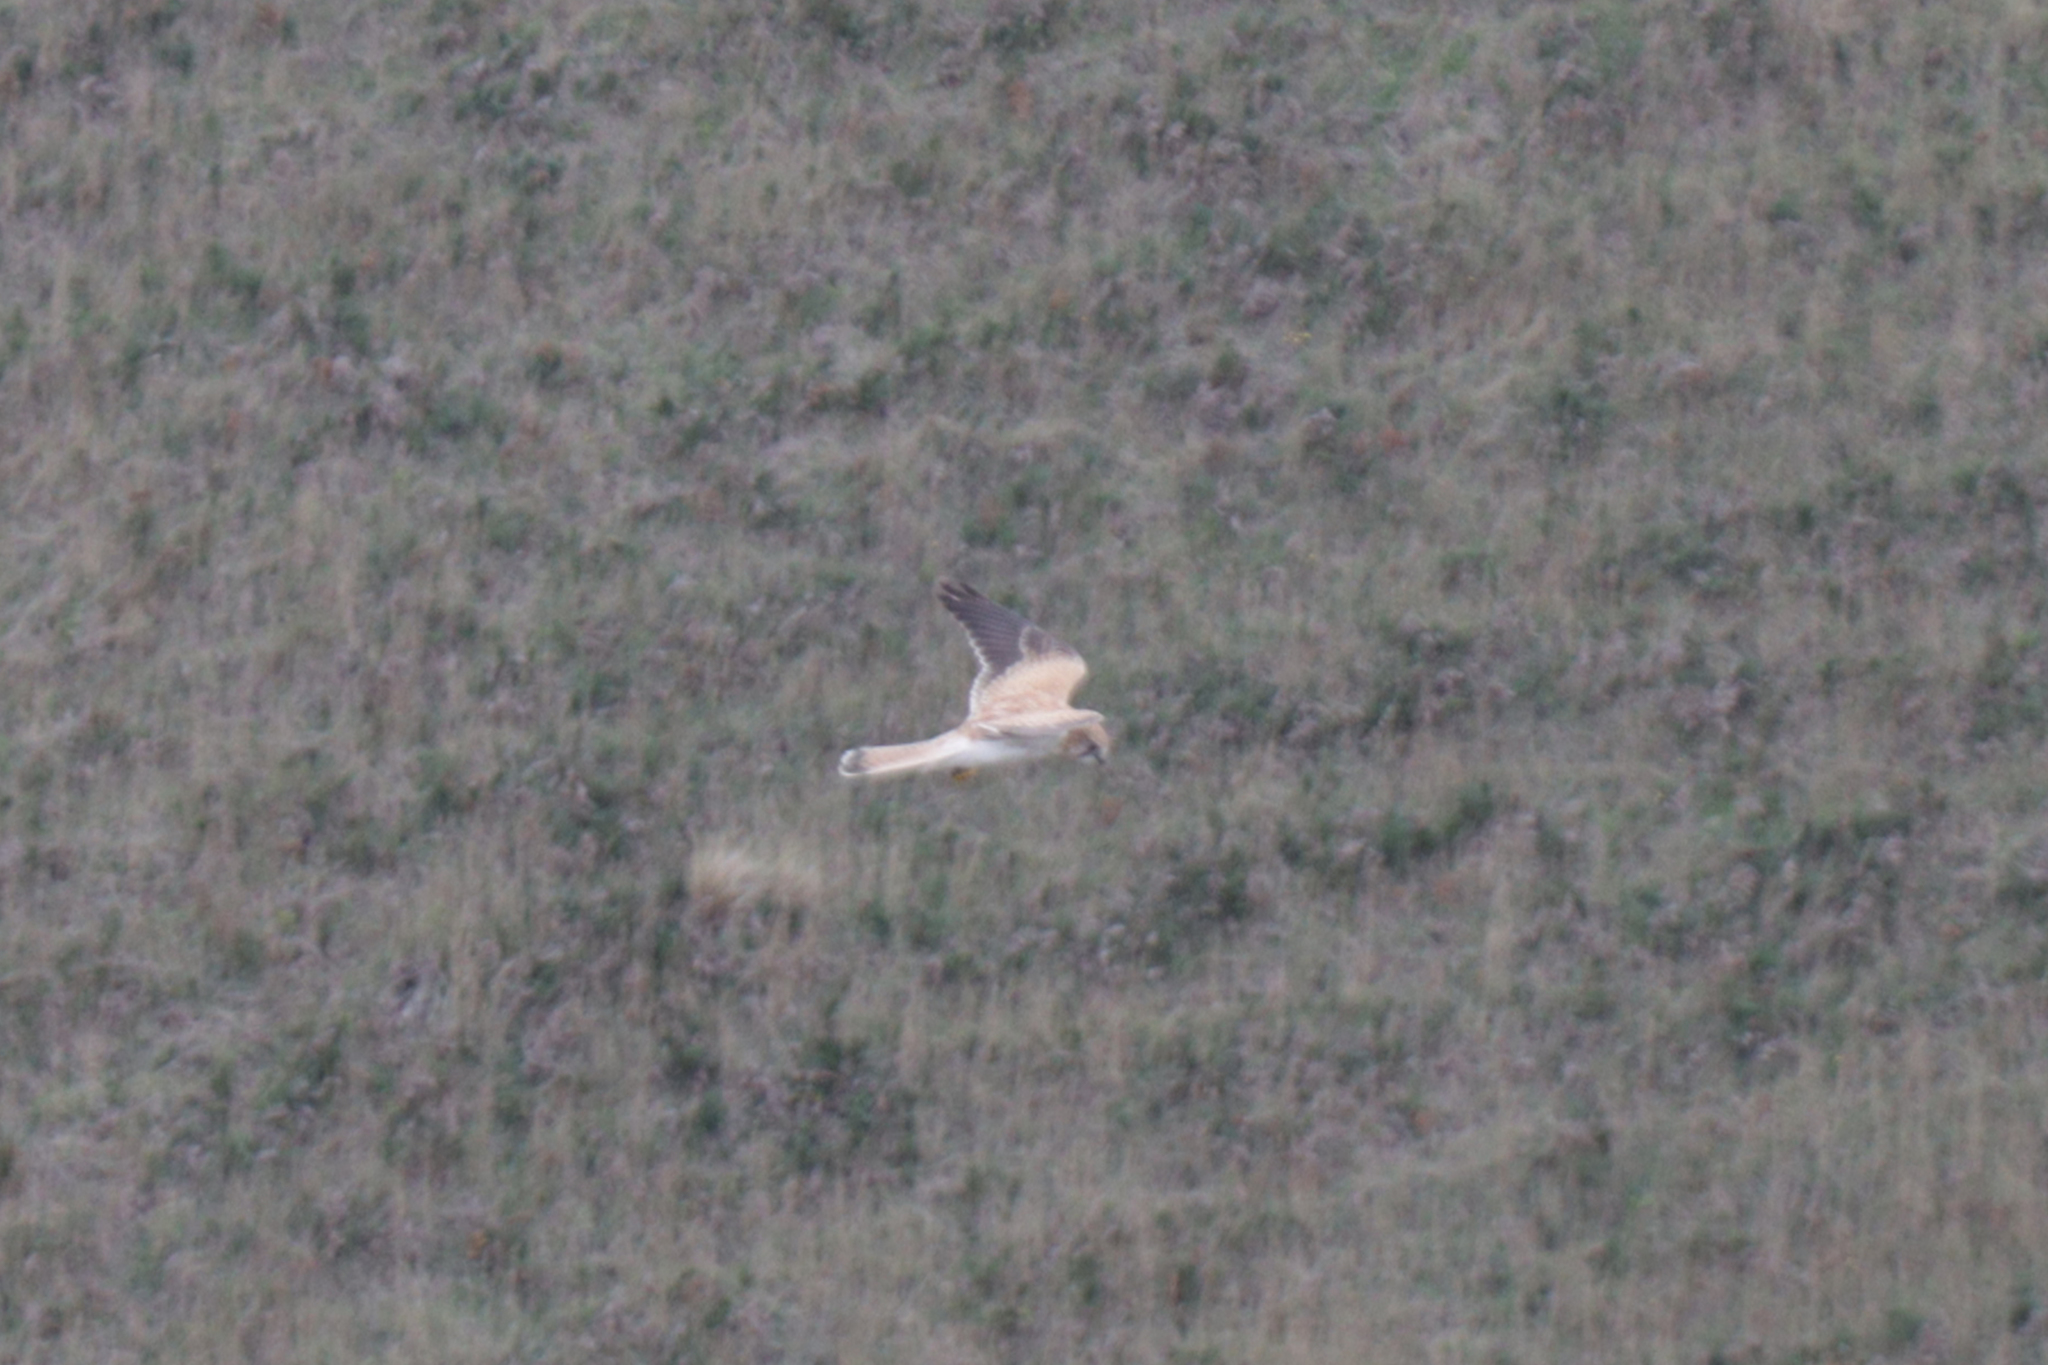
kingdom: Animalia
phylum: Chordata
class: Aves
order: Falconiformes
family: Falconidae
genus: Falco
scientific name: Falco cenchroides
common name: Nankeen kestrel
